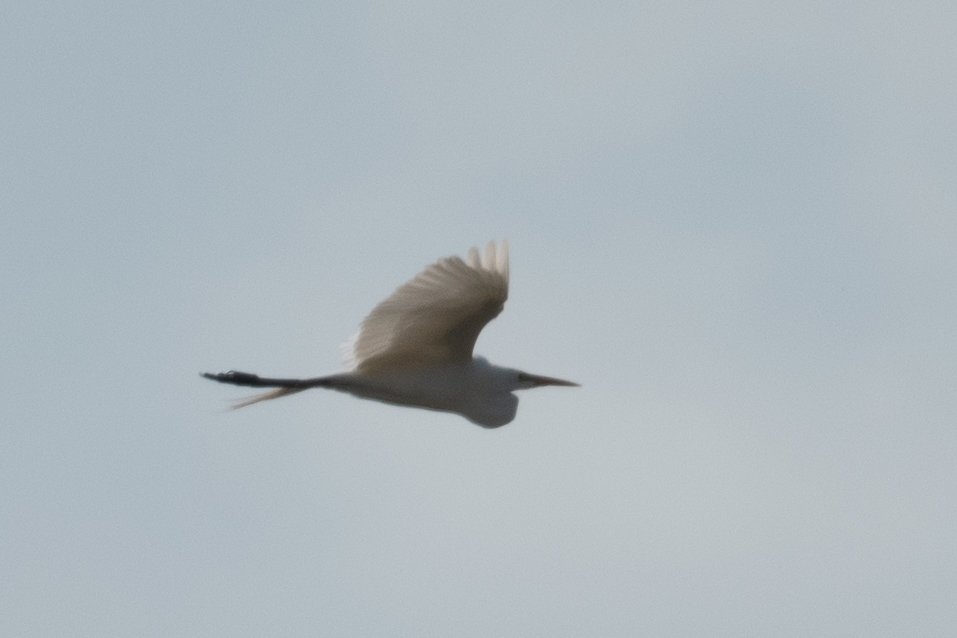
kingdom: Animalia
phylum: Chordata
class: Aves
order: Pelecaniformes
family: Ardeidae
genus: Ardea
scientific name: Ardea alba
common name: Great egret
